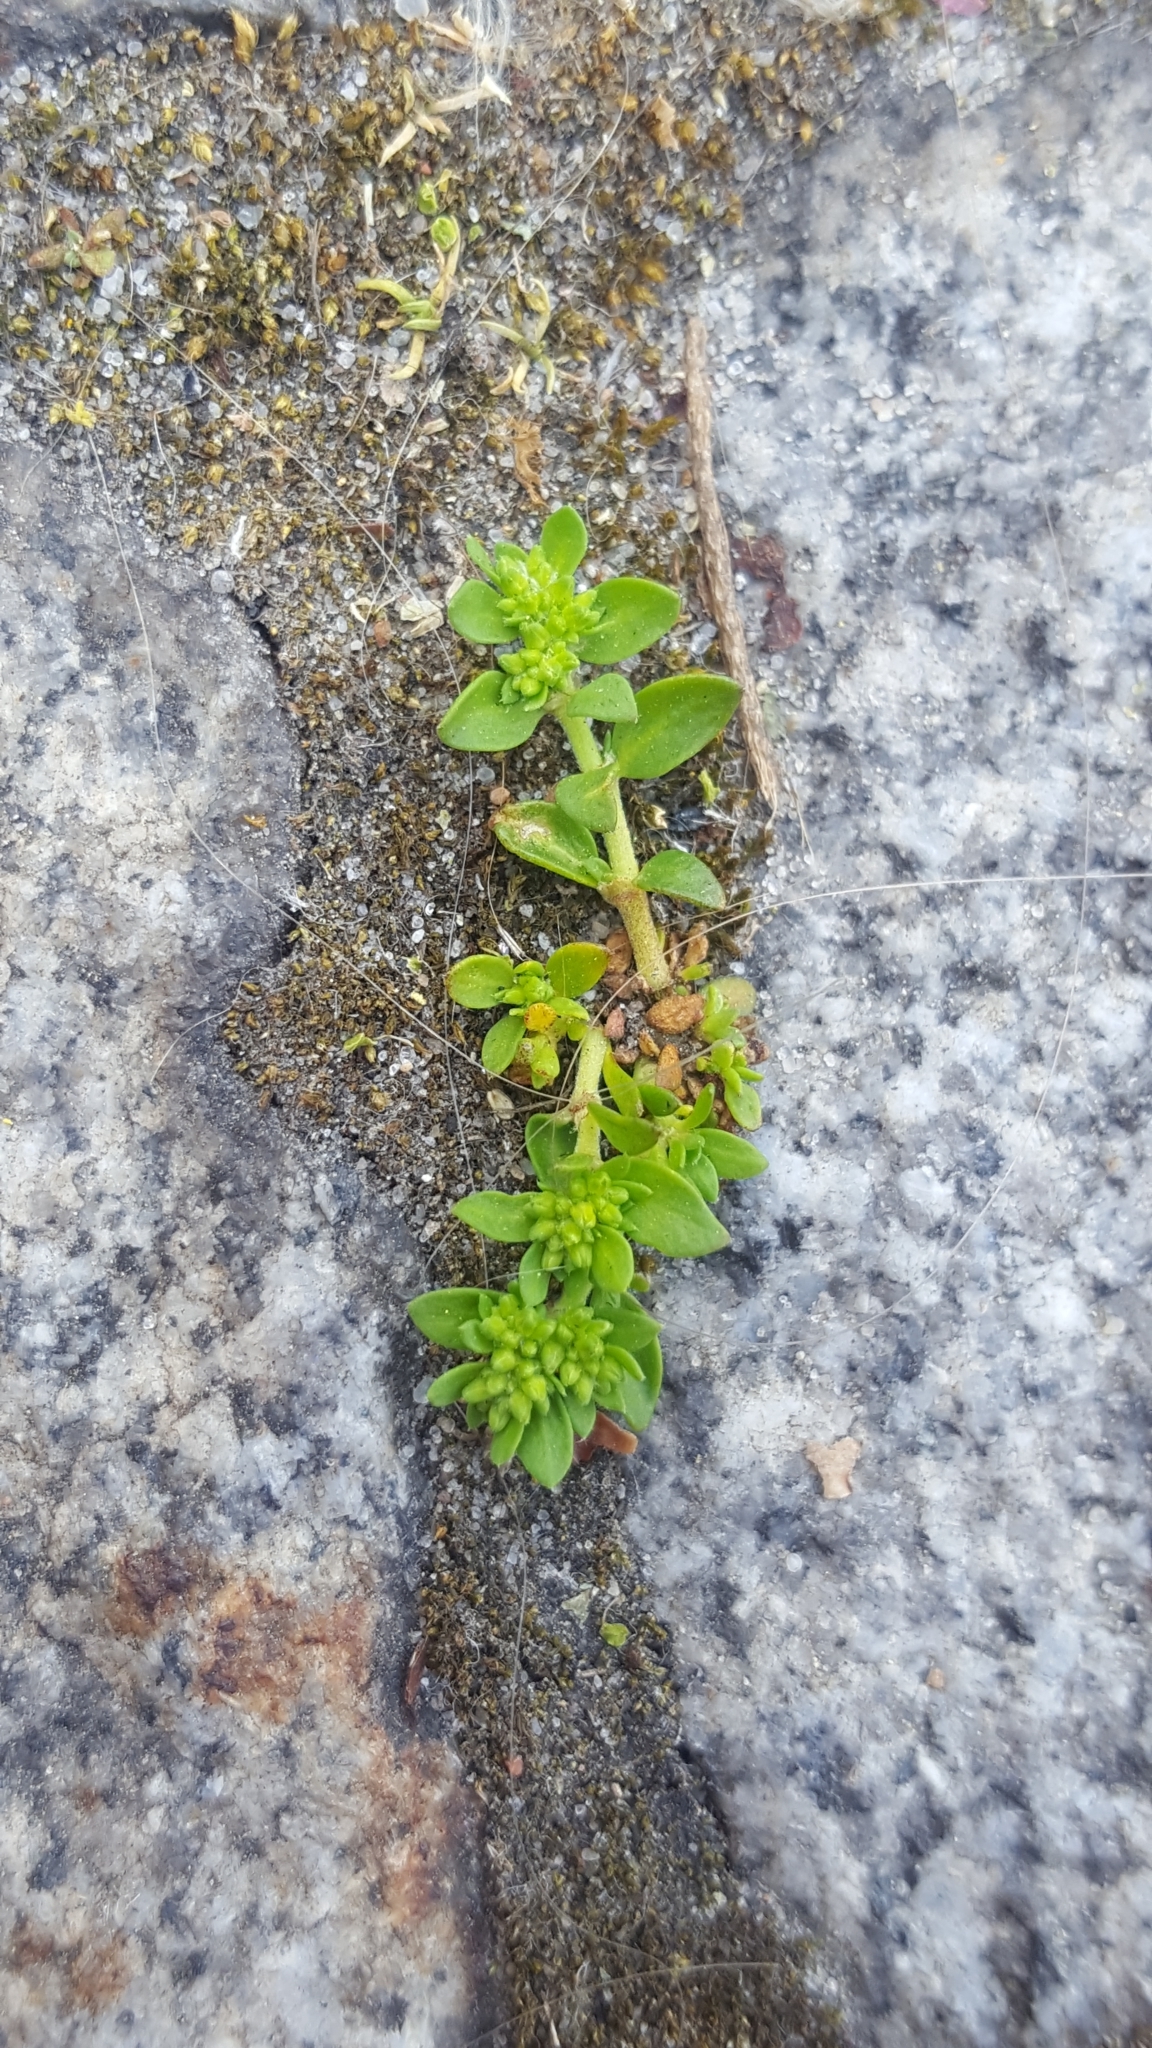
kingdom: Plantae
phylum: Tracheophyta
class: Magnoliopsida
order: Caryophyllales
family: Caryophyllaceae
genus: Herniaria
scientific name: Herniaria glabra
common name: Smooth rupturewort
